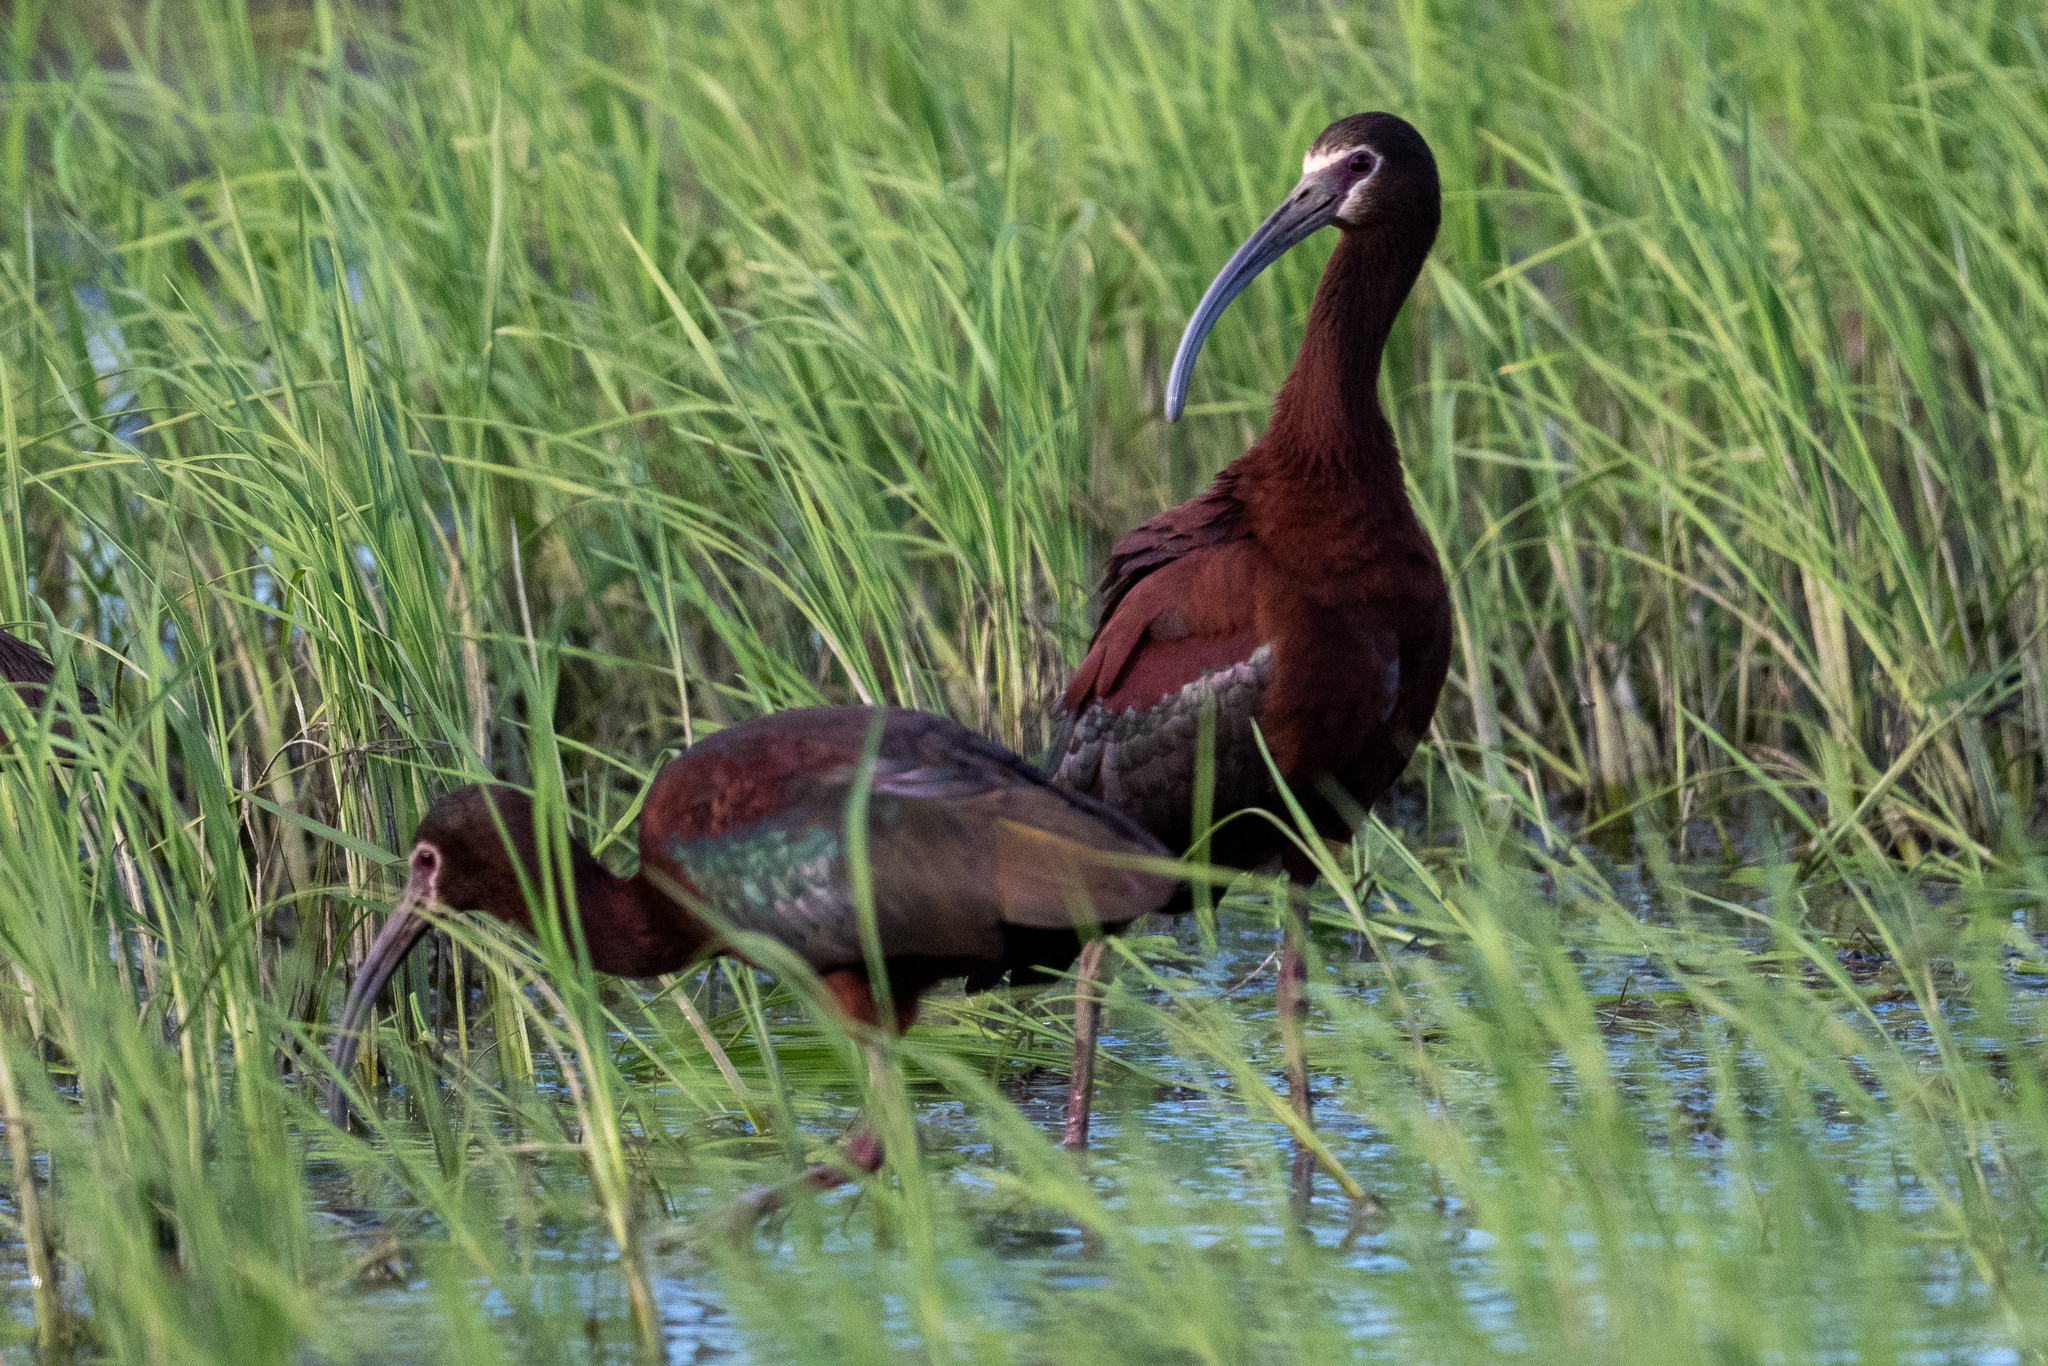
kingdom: Animalia
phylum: Chordata
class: Aves
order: Pelecaniformes
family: Threskiornithidae
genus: Plegadis
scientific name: Plegadis chihi
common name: White-faced ibis
